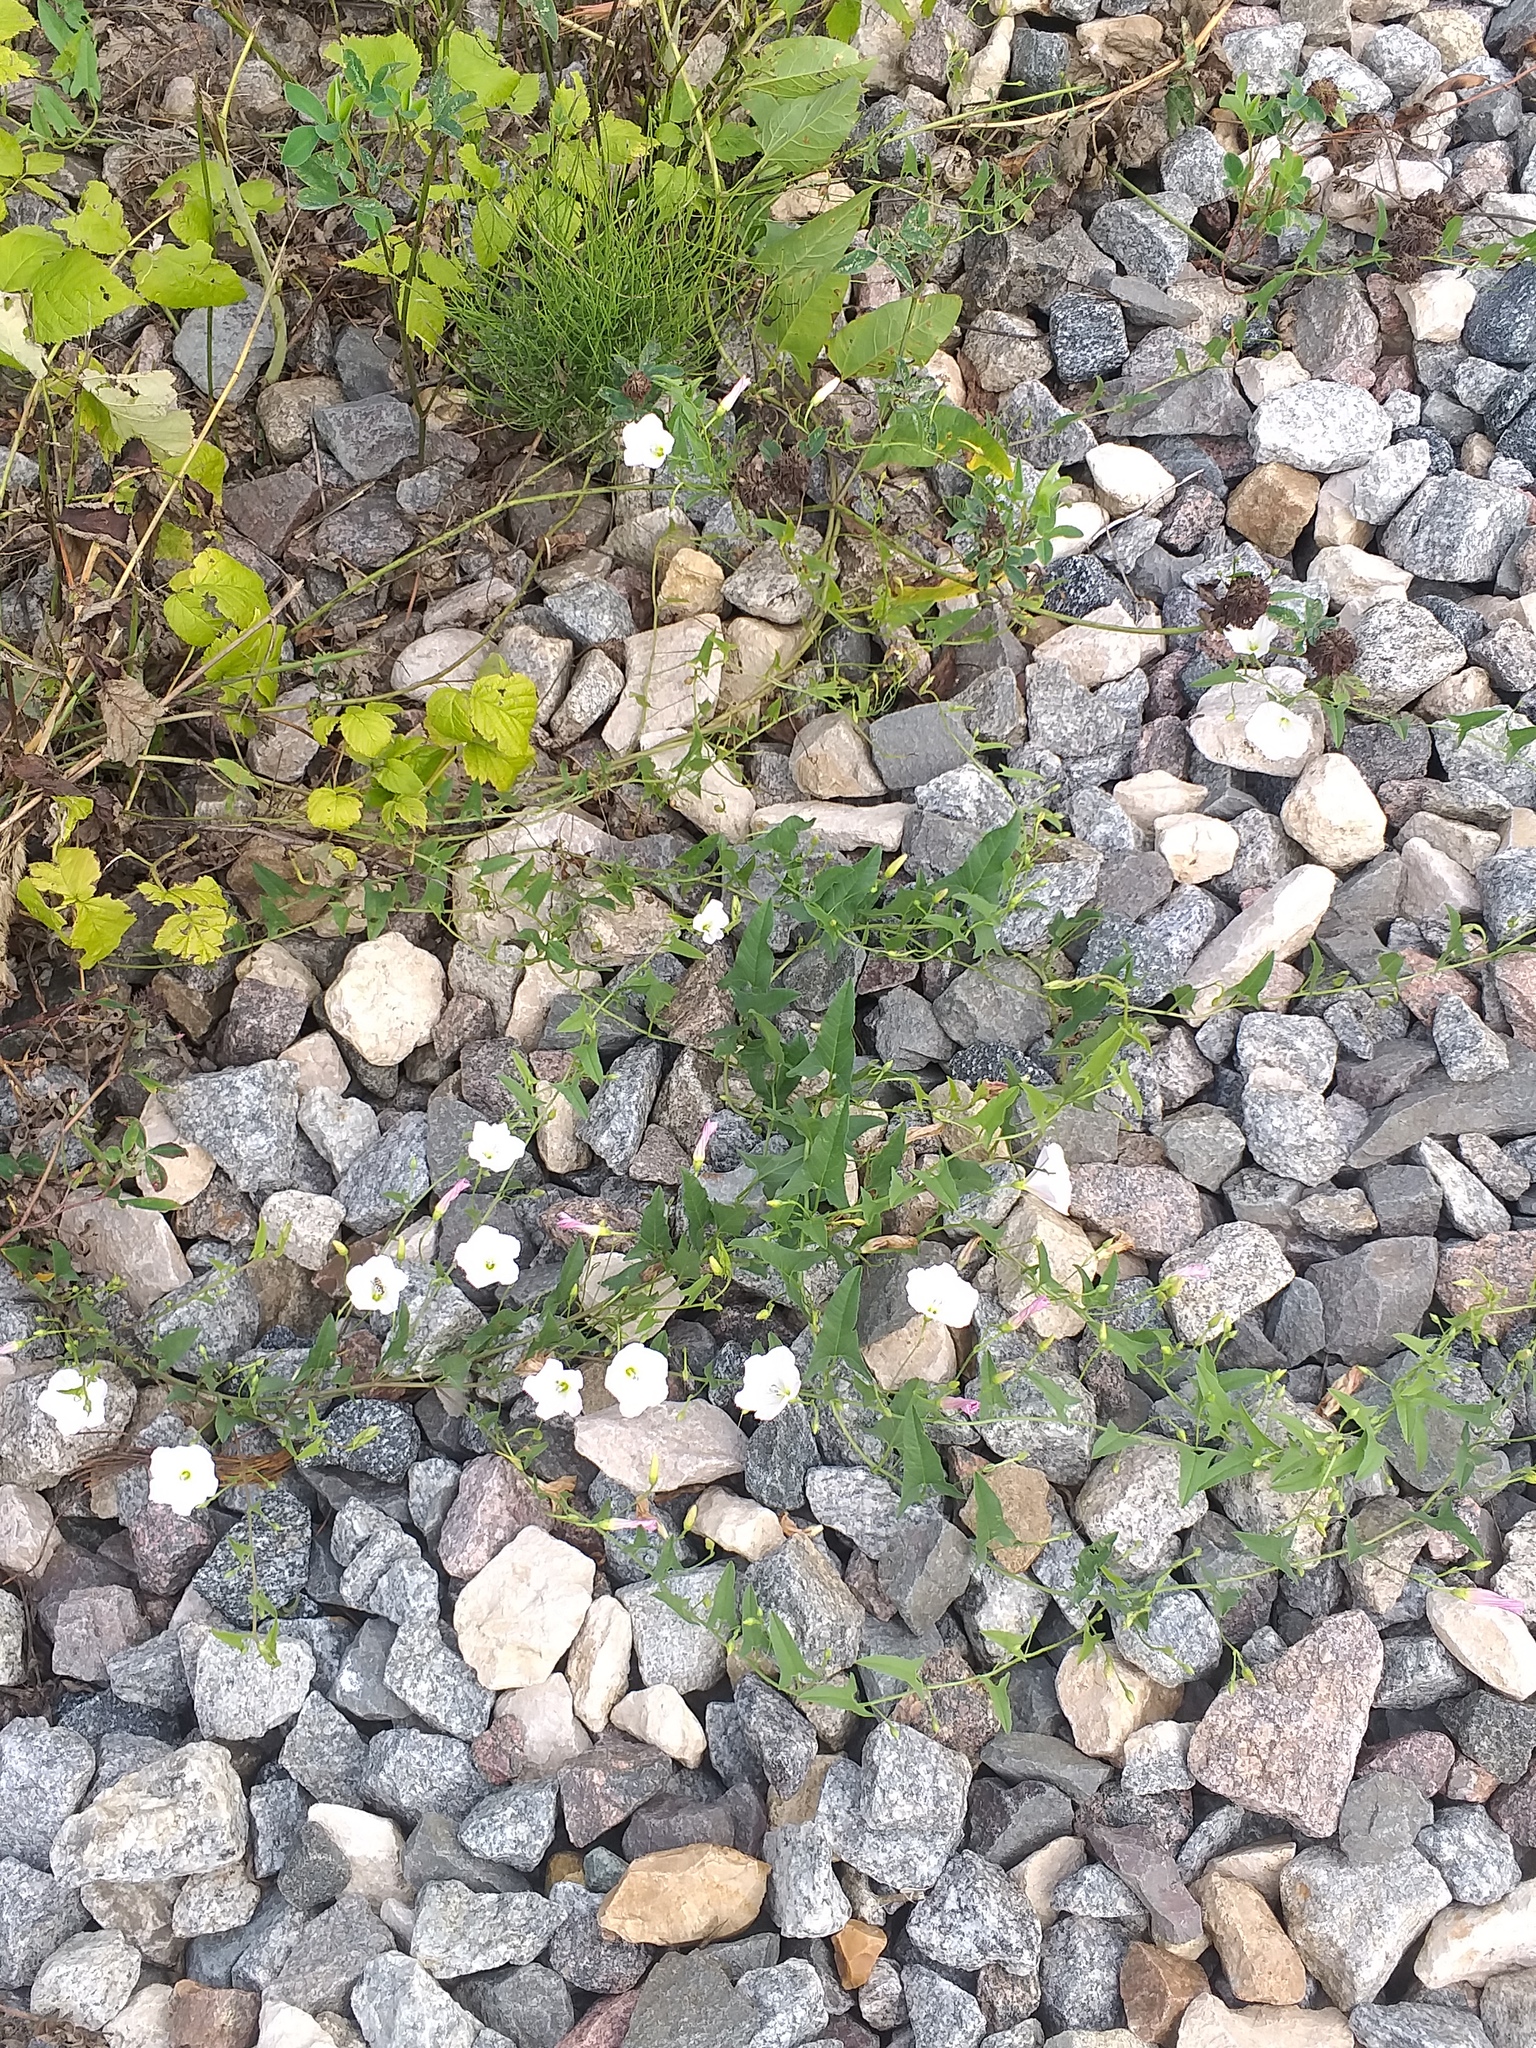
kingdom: Plantae
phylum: Tracheophyta
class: Magnoliopsida
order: Solanales
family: Convolvulaceae
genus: Convolvulus
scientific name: Convolvulus arvensis
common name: Field bindweed
